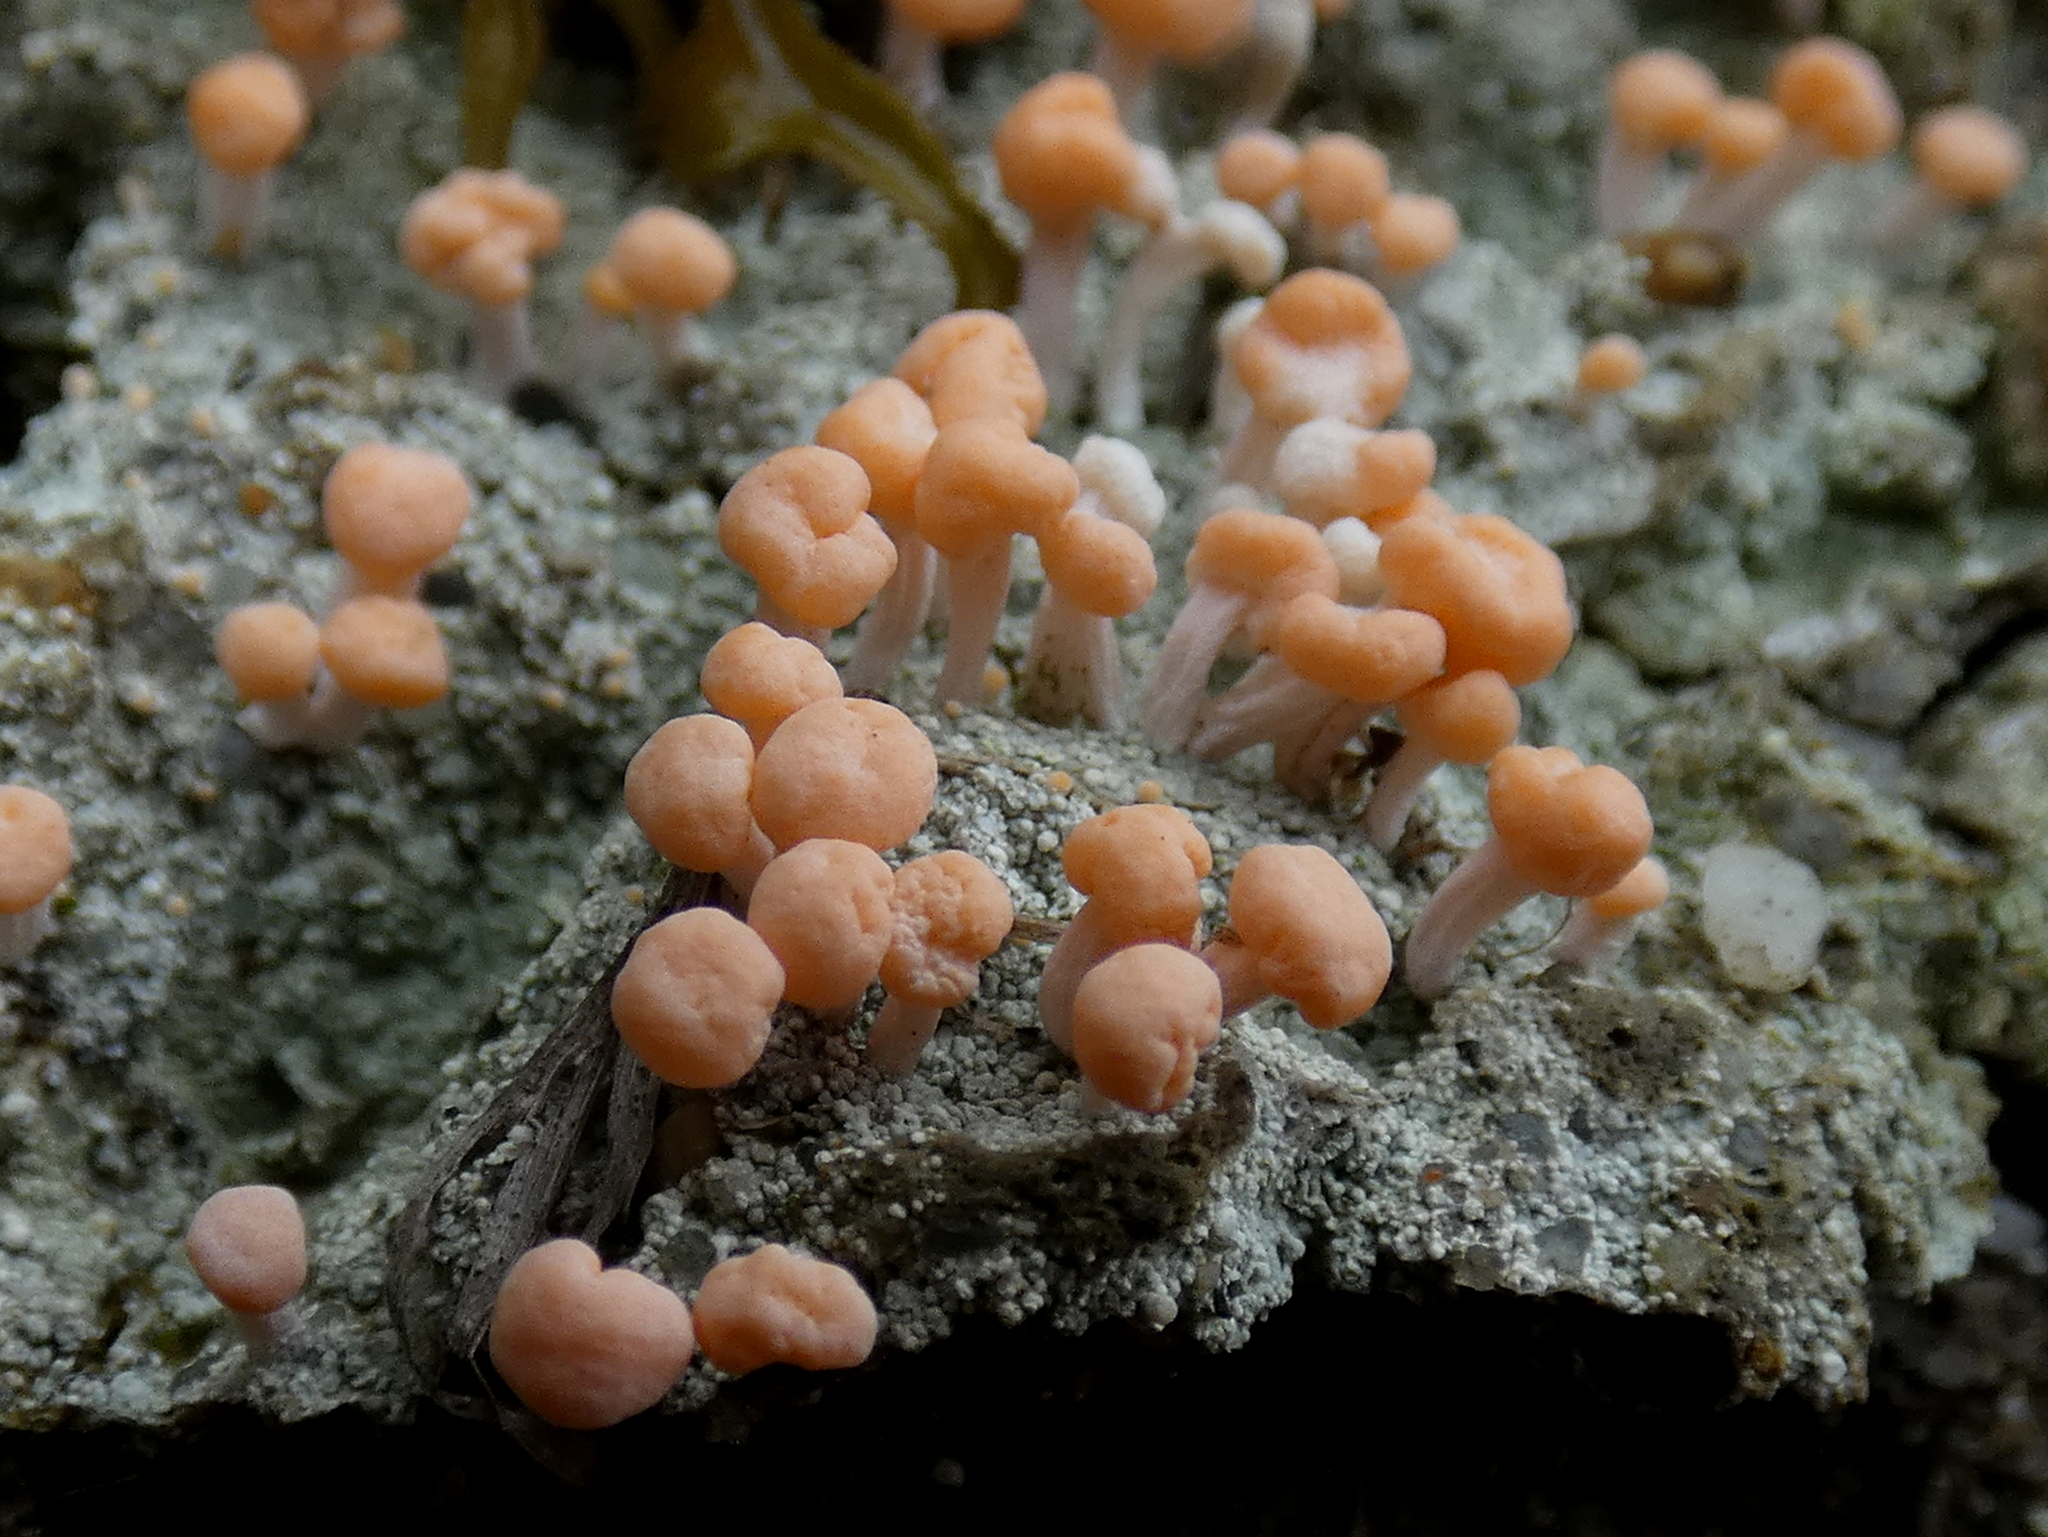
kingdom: Fungi
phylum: Ascomycota
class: Lecanoromycetes
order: Pertusariales
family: Icmadophilaceae
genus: Dibaeis
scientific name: Dibaeis baeomyces
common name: Pink earth lichen
